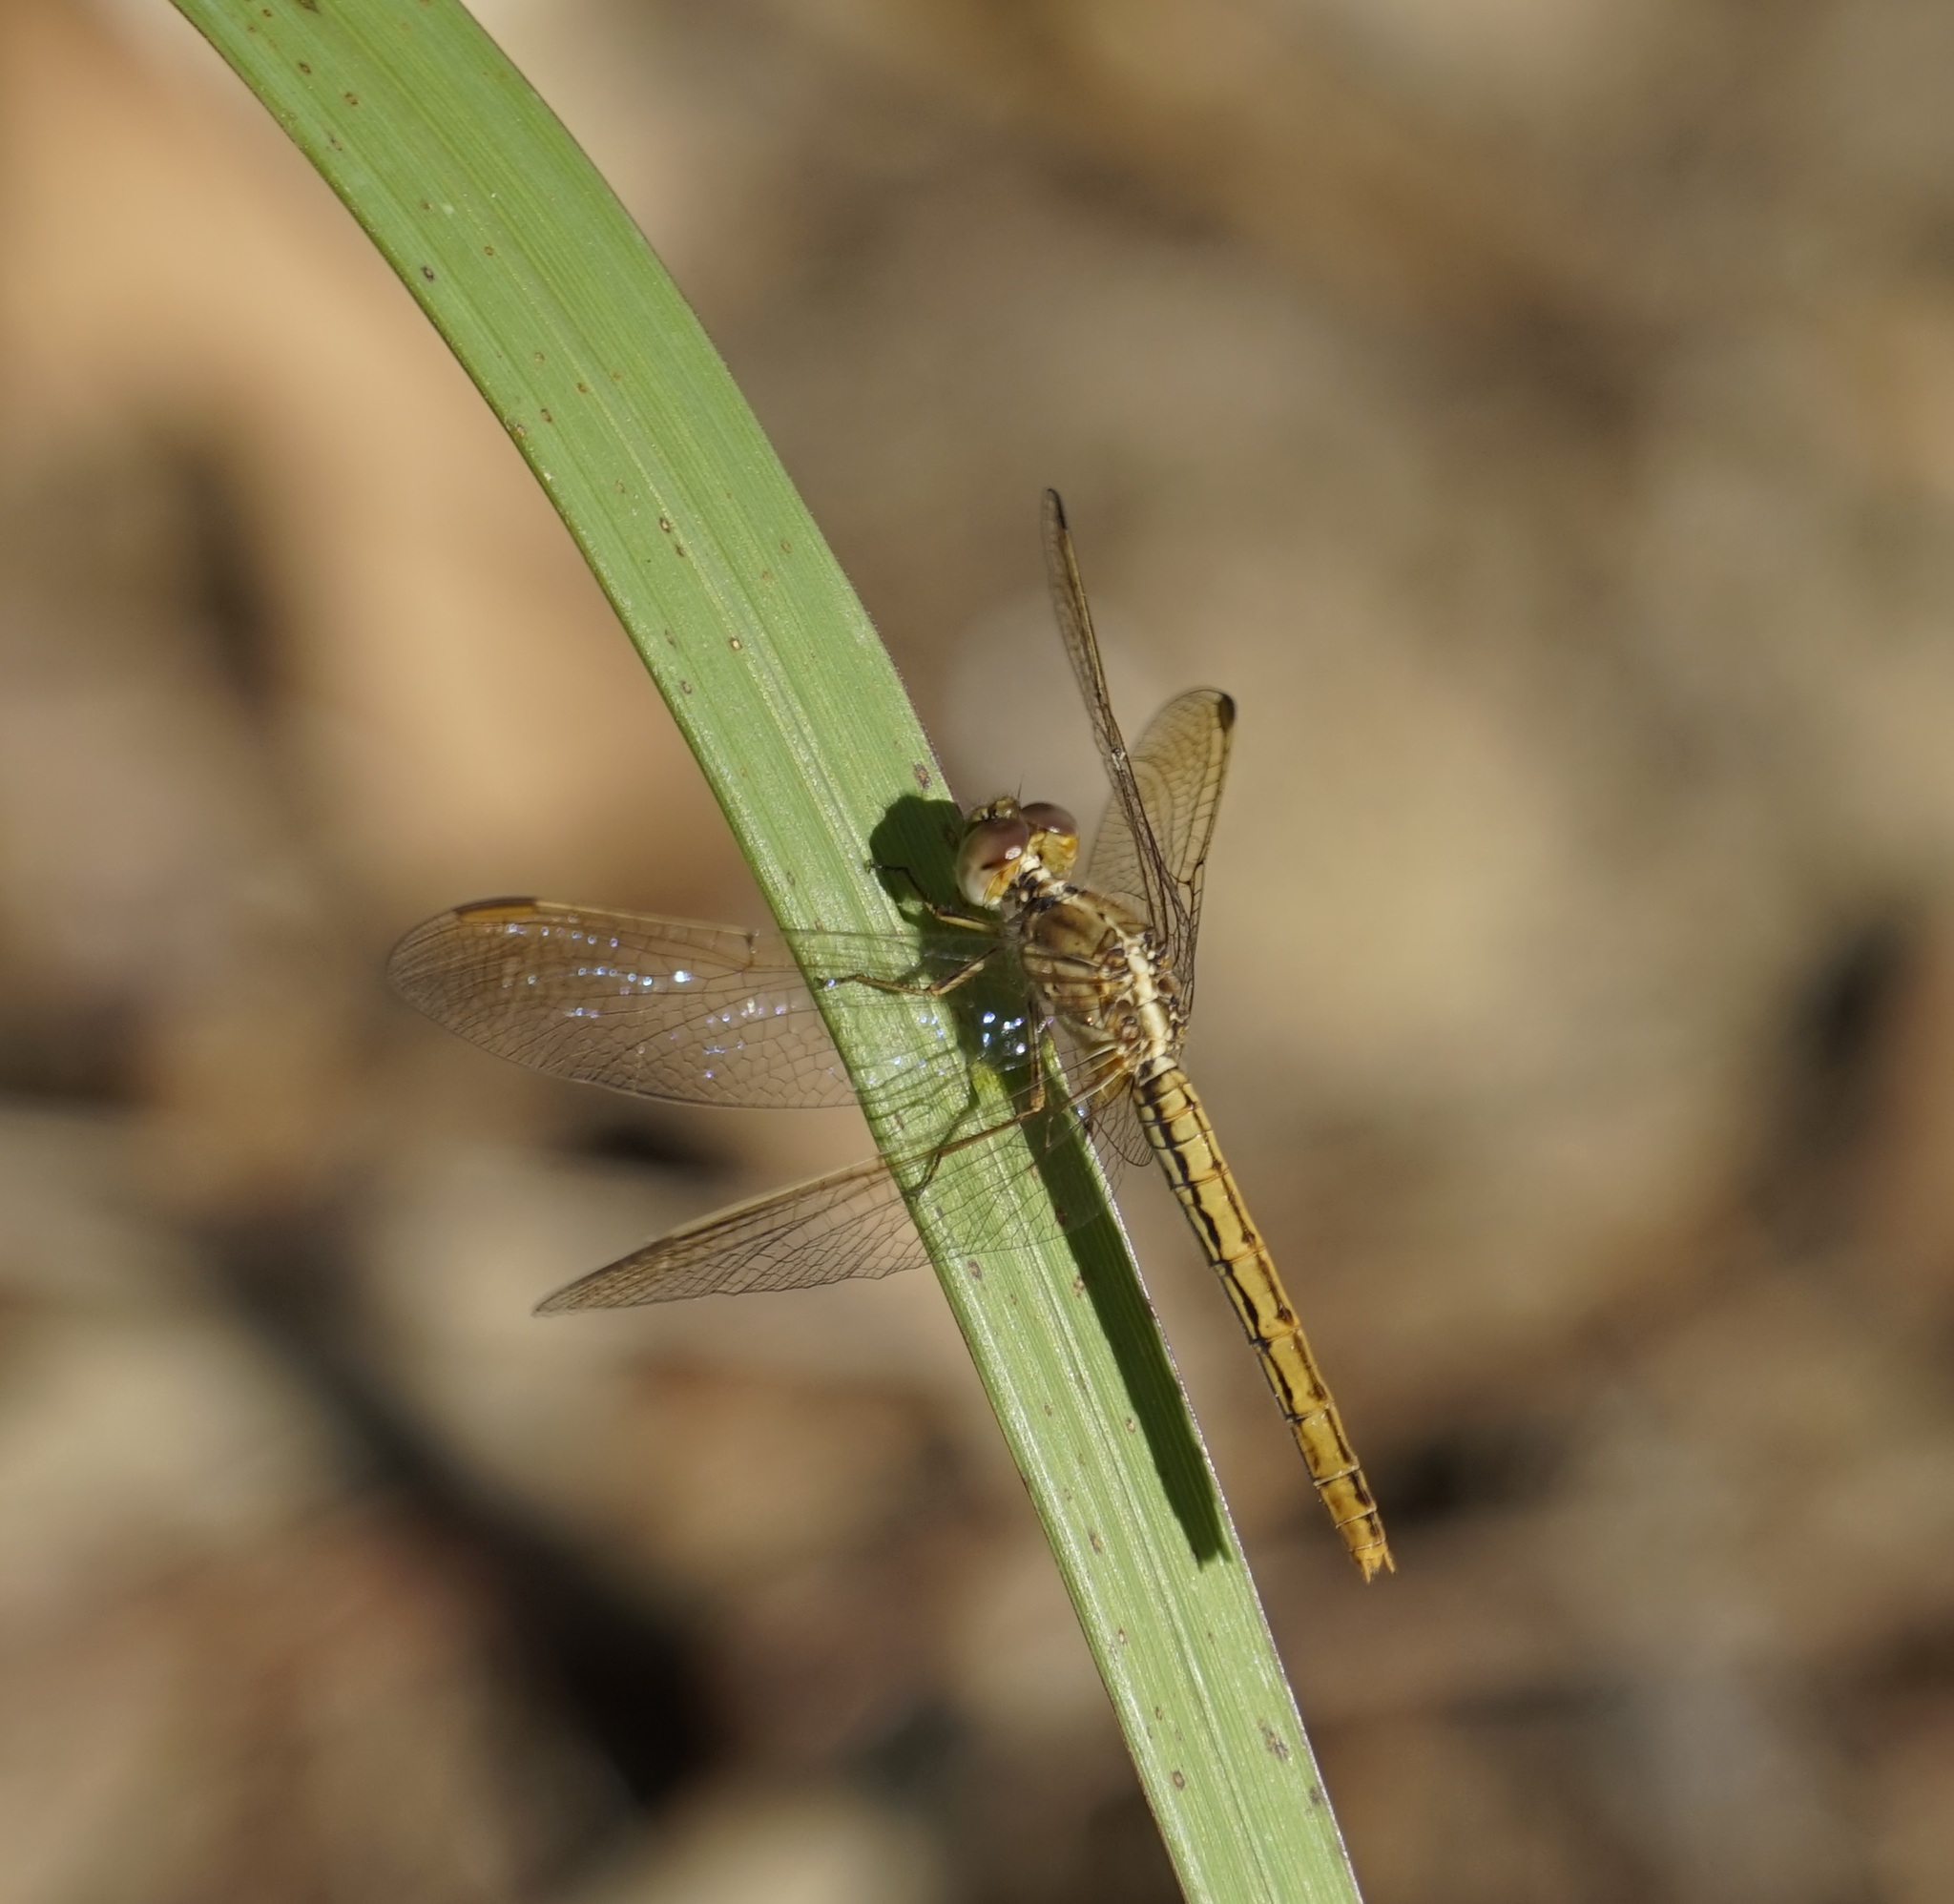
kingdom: Animalia
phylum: Arthropoda
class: Insecta
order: Odonata
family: Libellulidae
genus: Diplacodes
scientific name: Diplacodes haematodes
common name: Scarlet percher
